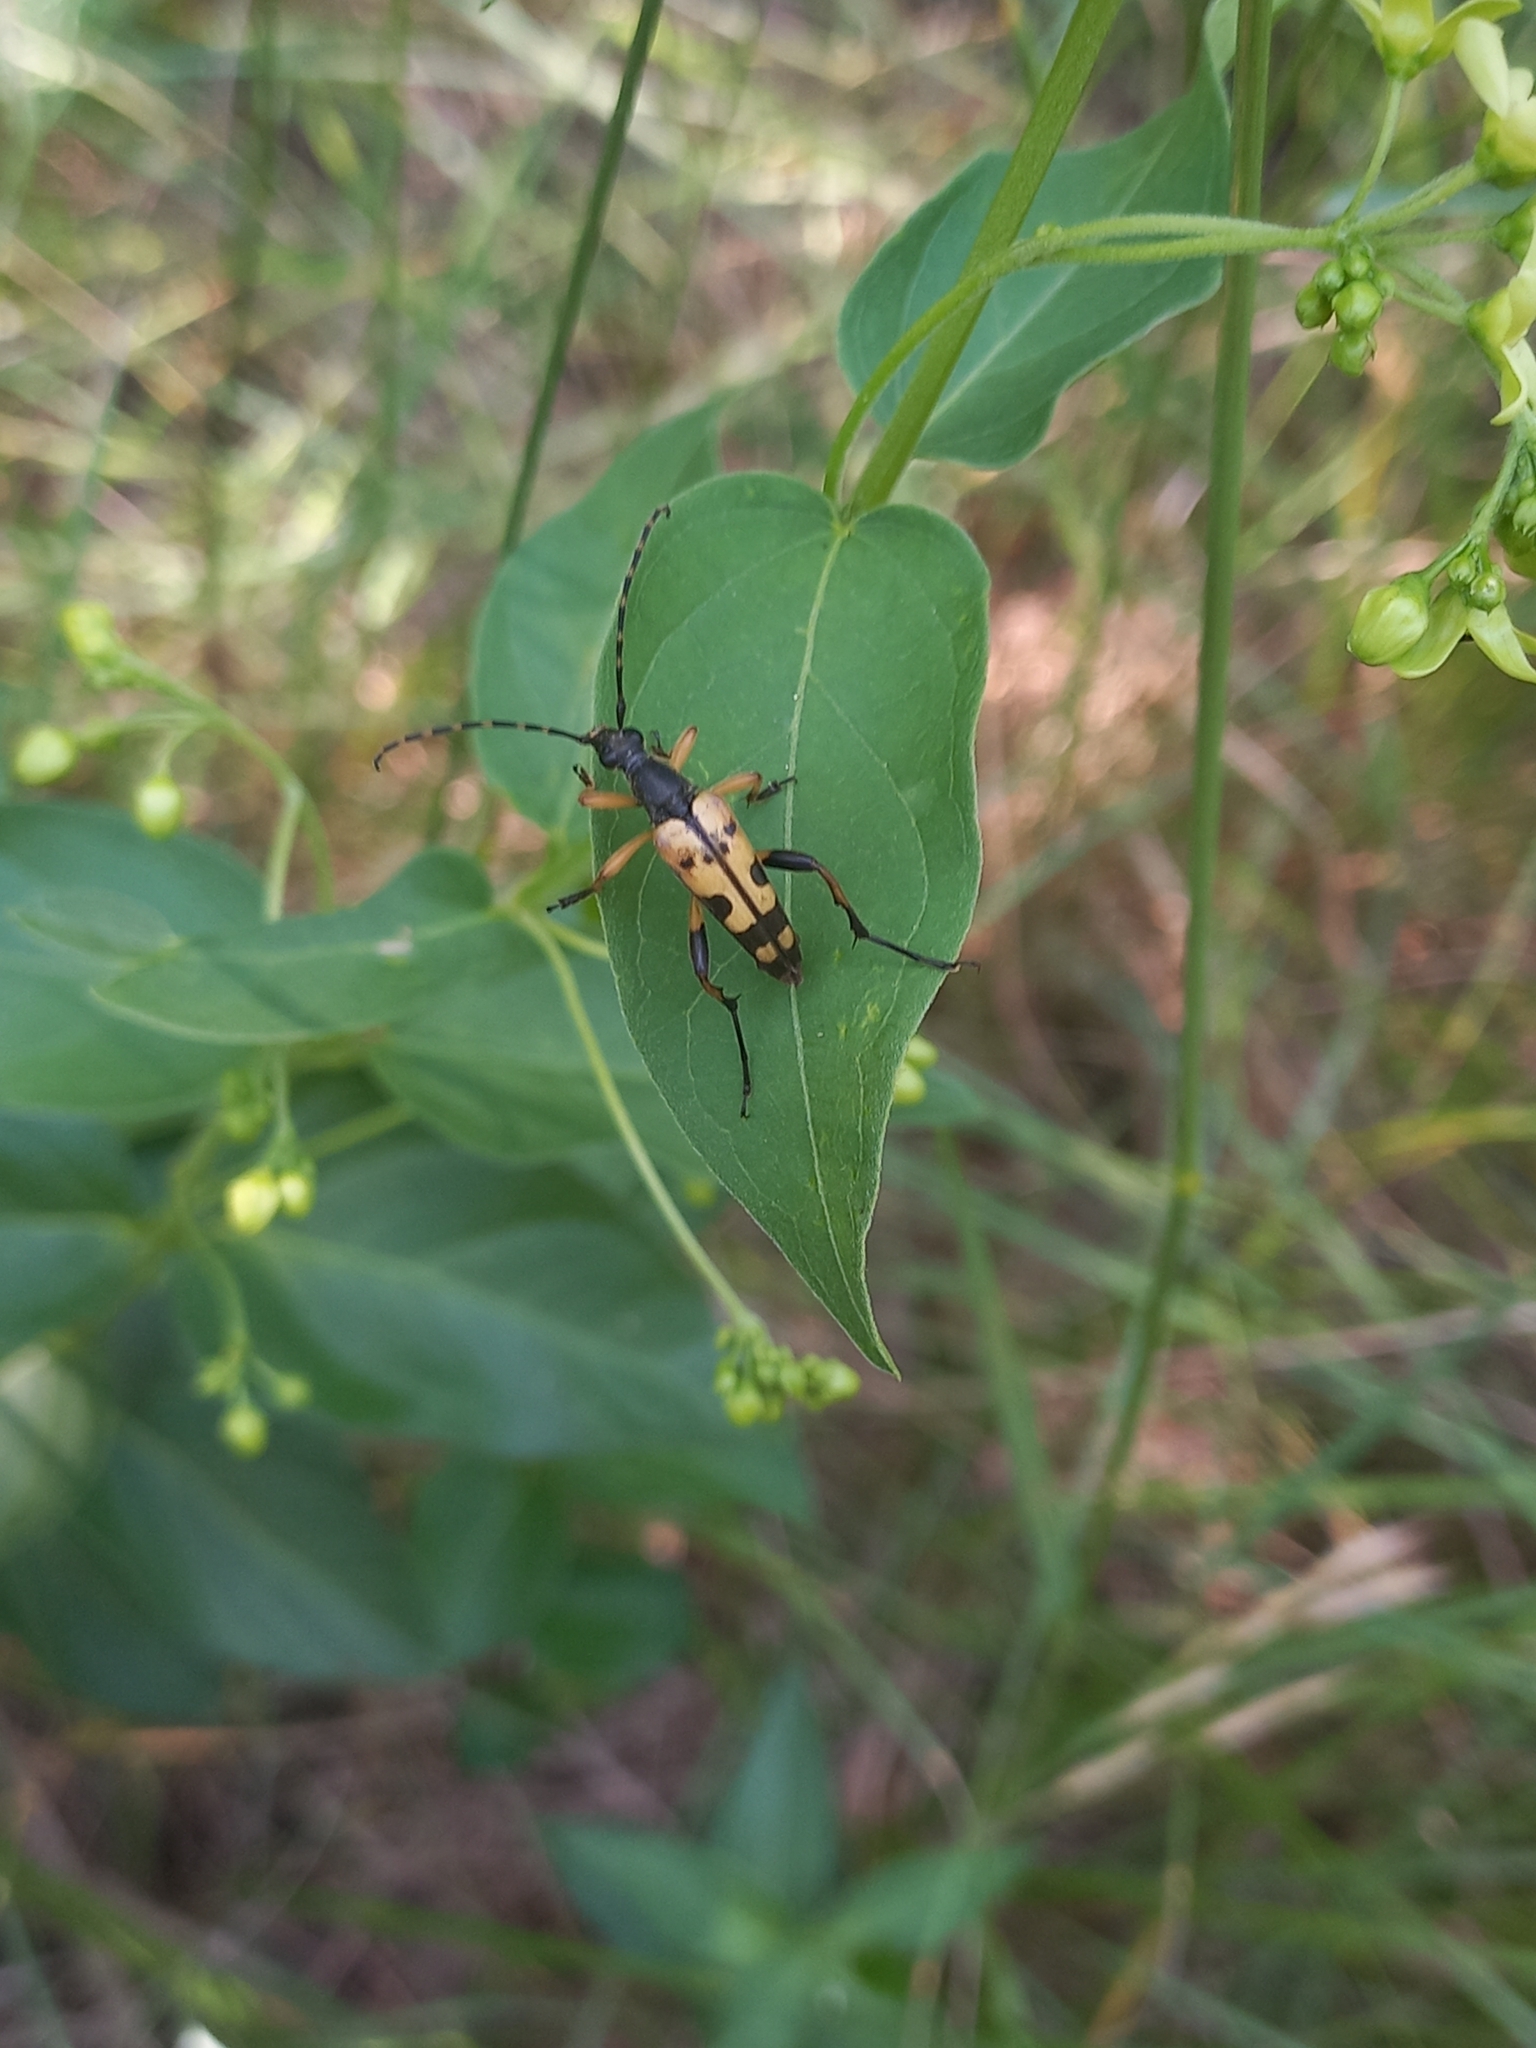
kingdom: Animalia
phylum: Arthropoda
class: Insecta
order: Coleoptera
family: Cerambycidae
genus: Rutpela
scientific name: Rutpela maculata
